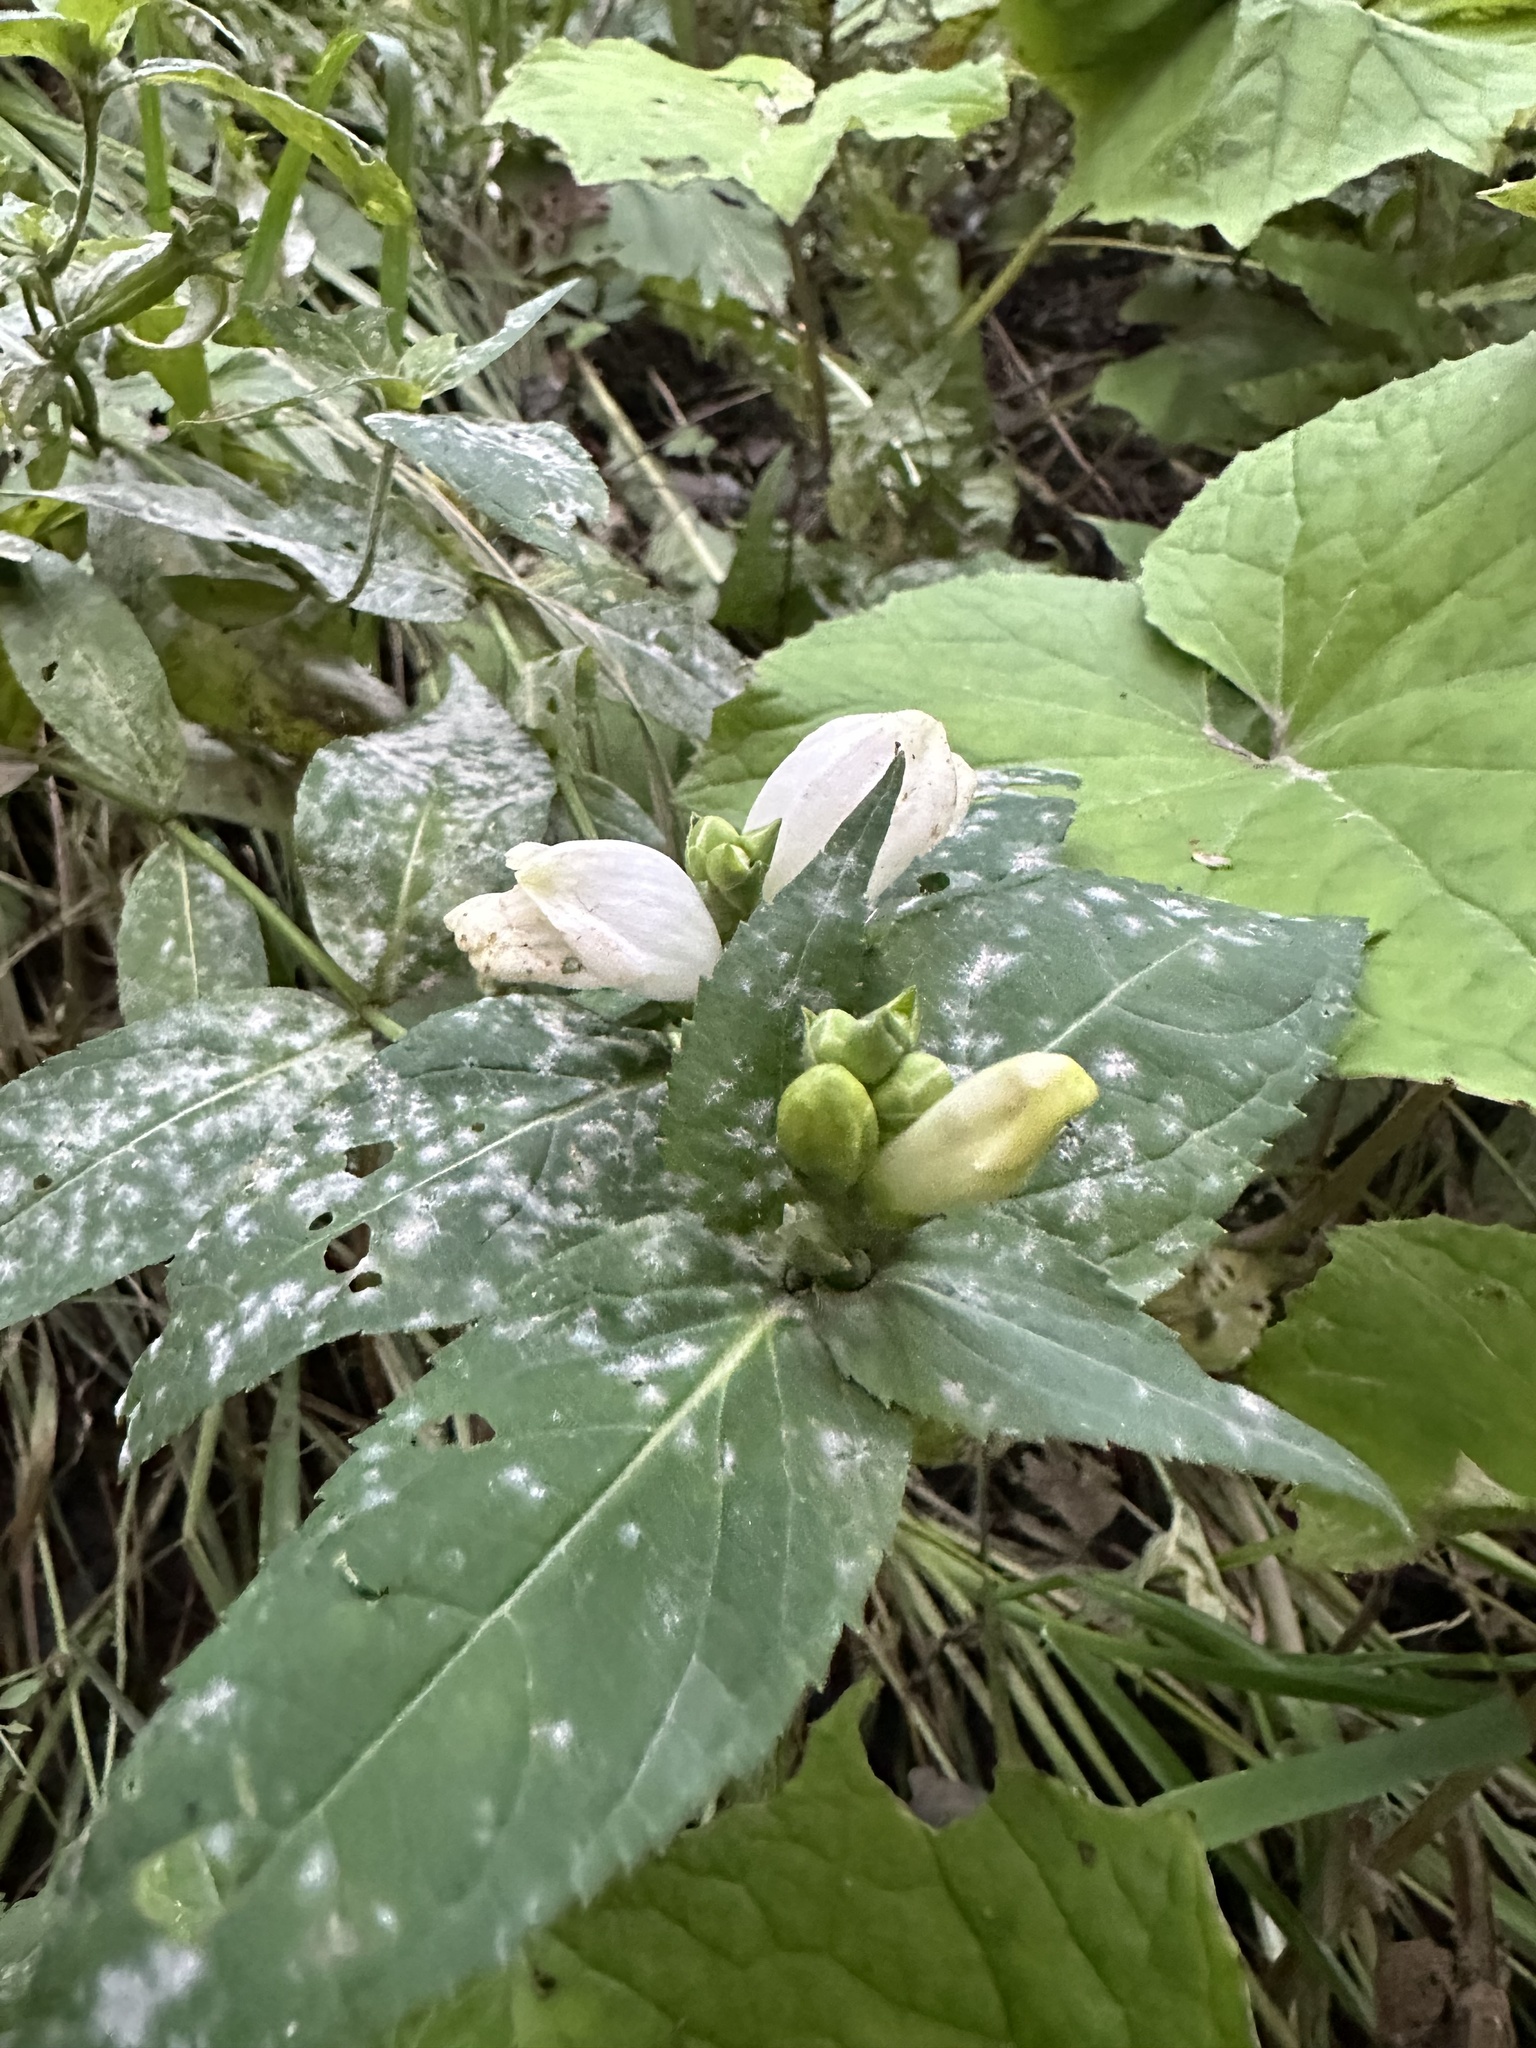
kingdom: Plantae
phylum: Tracheophyta
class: Magnoliopsida
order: Lamiales
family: Plantaginaceae
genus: Chelone
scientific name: Chelone glabra
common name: Snakehead
